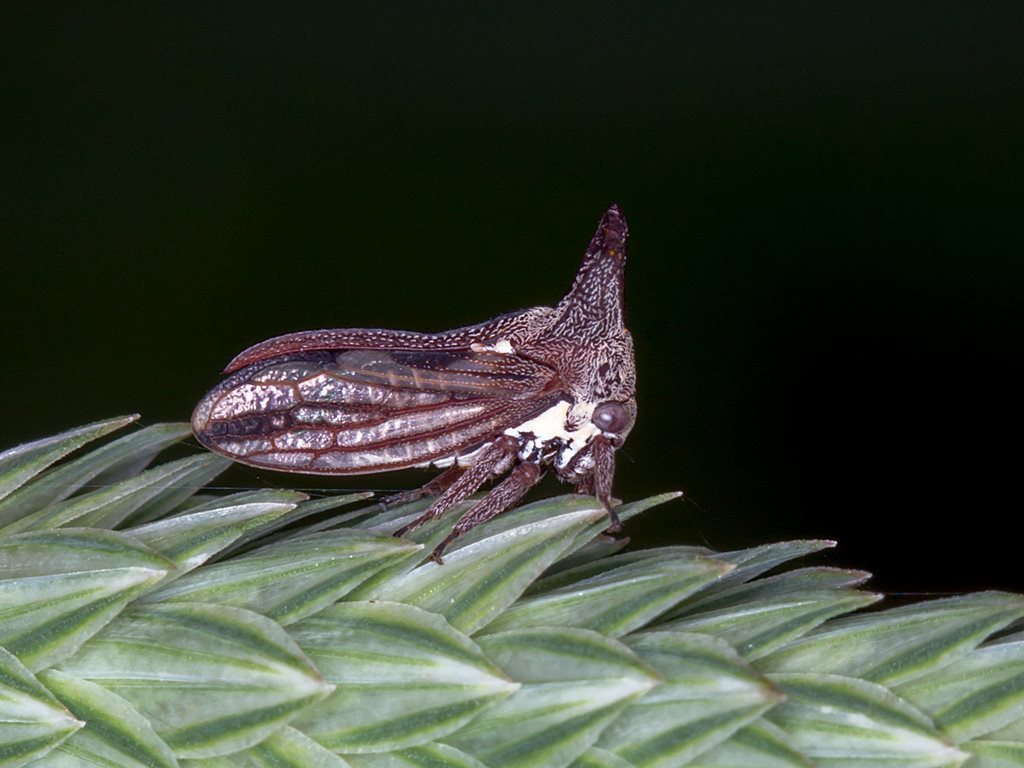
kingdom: Animalia
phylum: Arthropoda
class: Insecta
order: Hemiptera
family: Membracidae
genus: Ceraon
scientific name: Ceraon vitta
